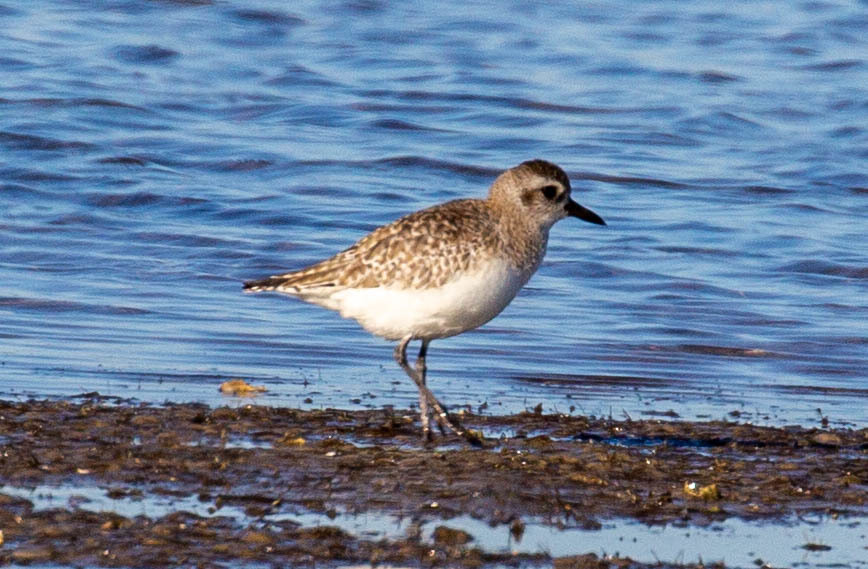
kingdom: Animalia
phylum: Chordata
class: Aves
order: Charadriiformes
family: Charadriidae
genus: Pluvialis
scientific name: Pluvialis squatarola
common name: Grey plover
